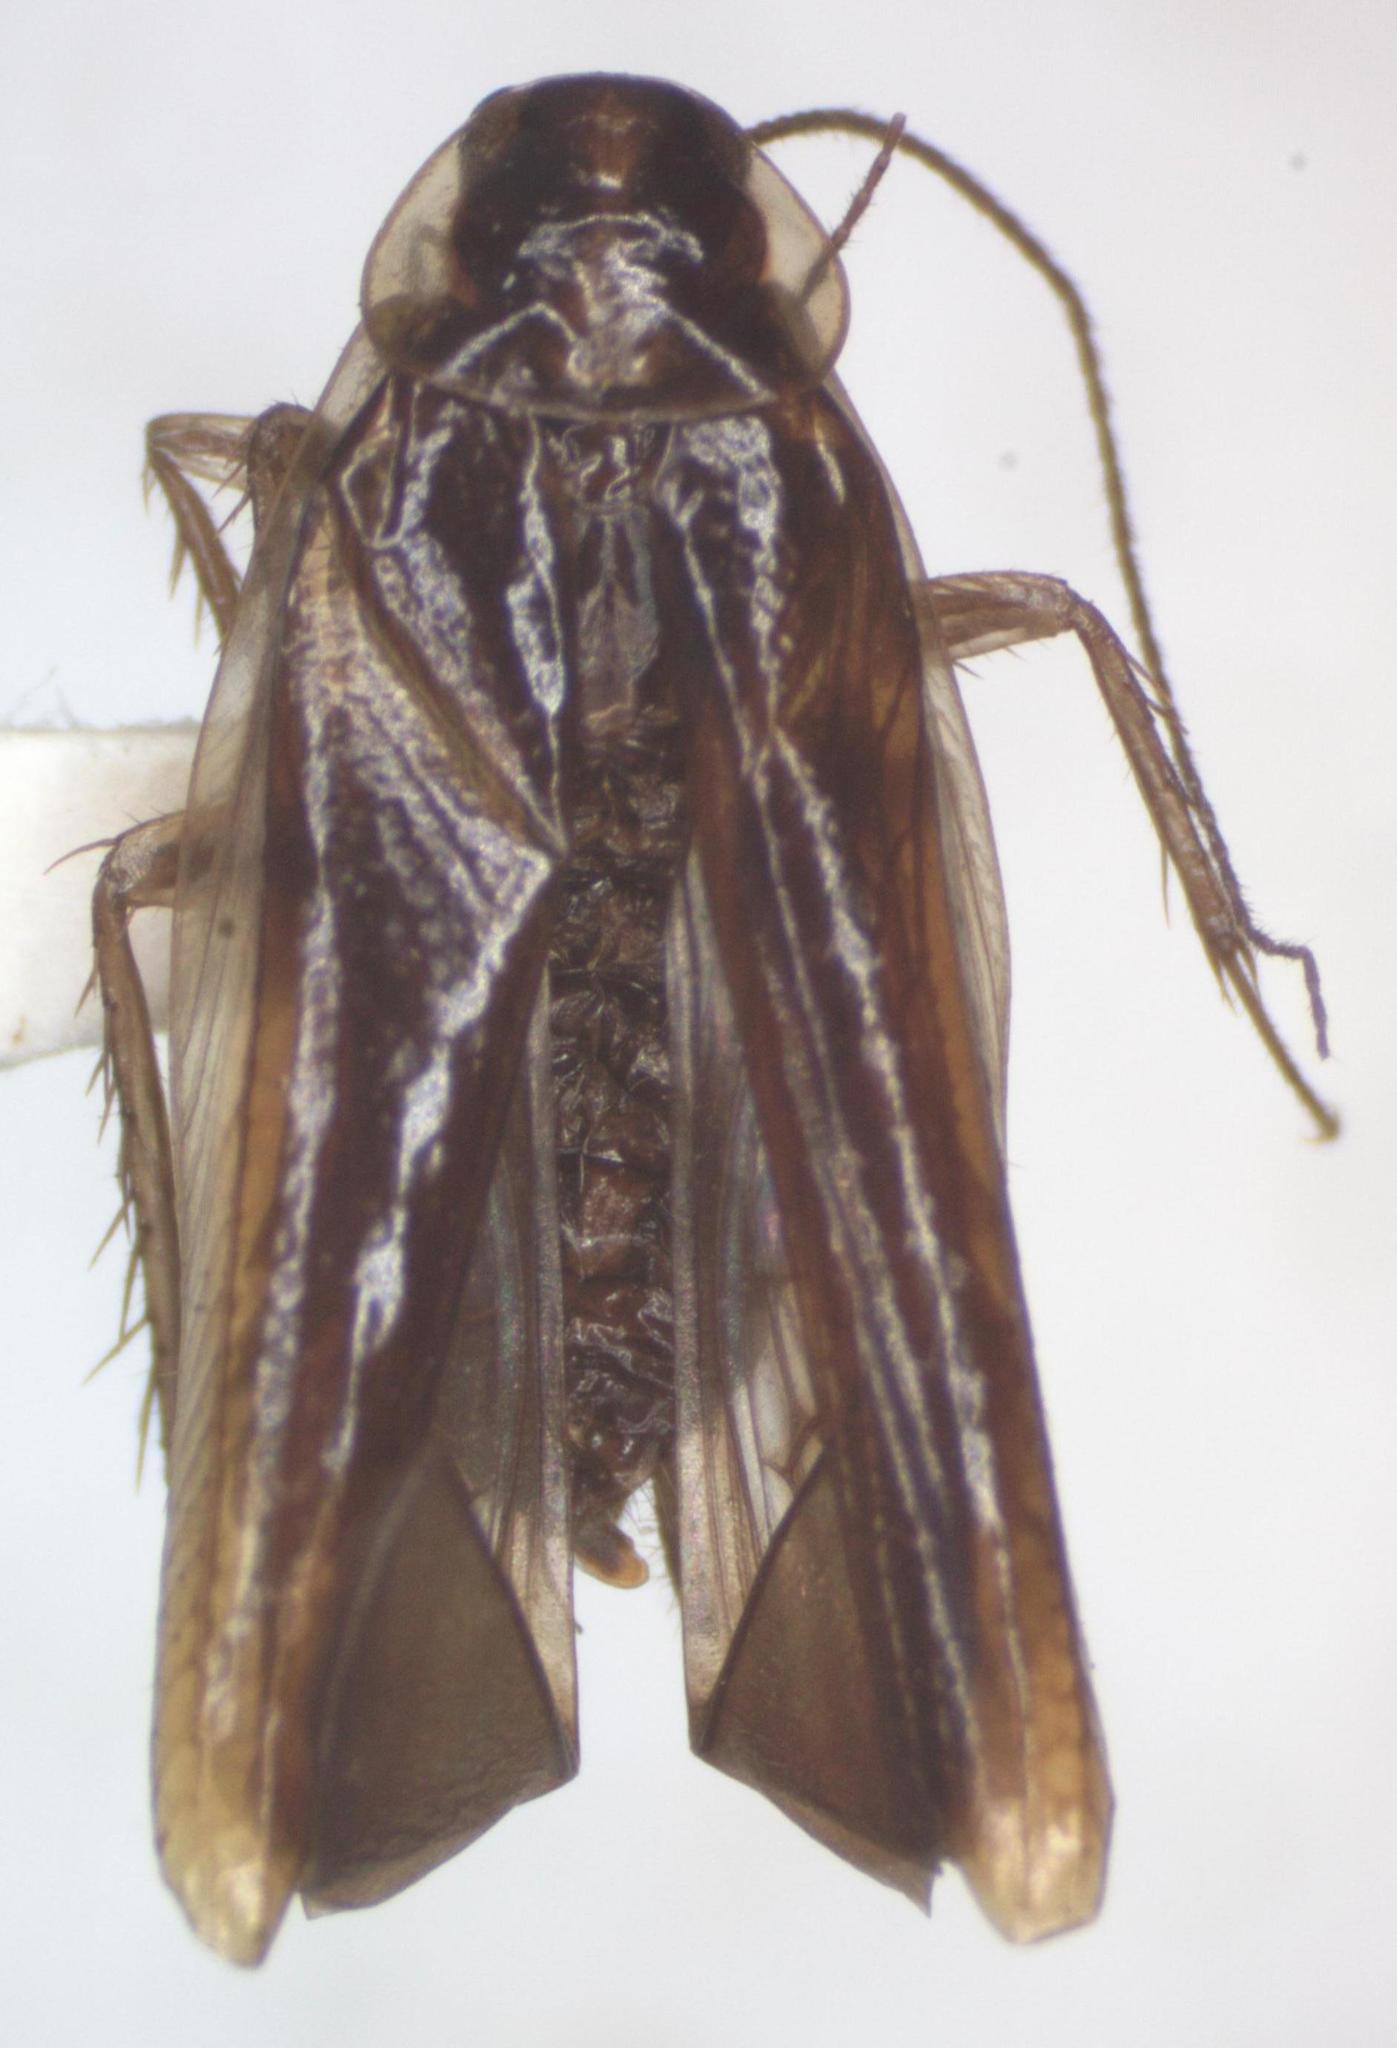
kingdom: Animalia
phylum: Arthropoda
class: Insecta
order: Blattodea
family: Anaplectidae
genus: Anaplecta
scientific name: Anaplecta azteca
